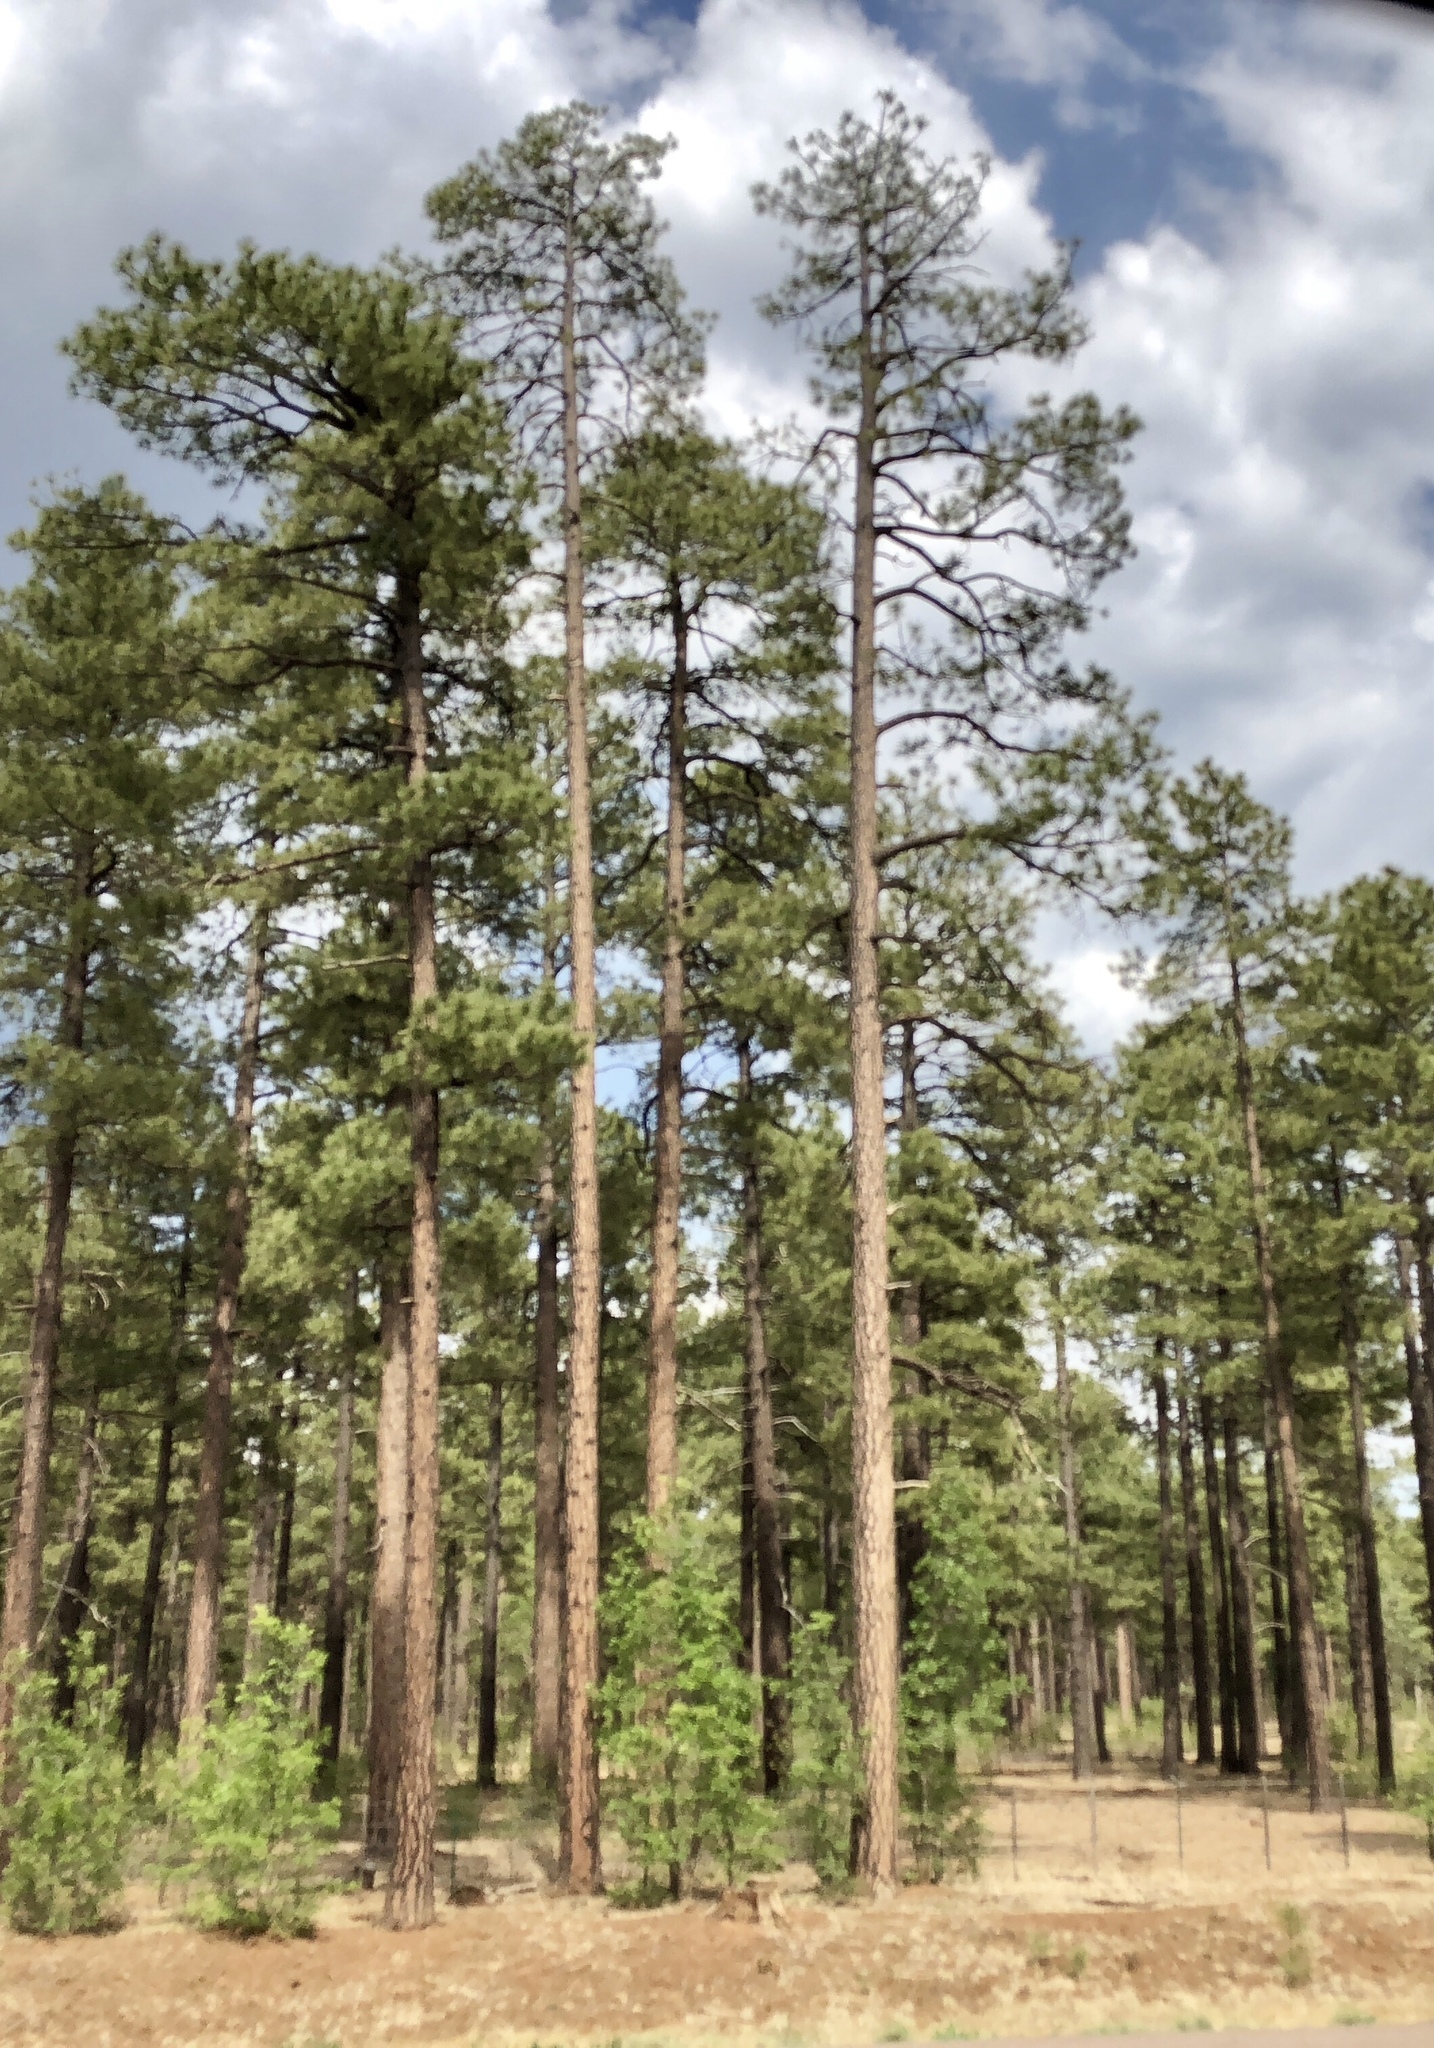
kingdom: Plantae
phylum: Tracheophyta
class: Pinopsida
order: Pinales
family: Pinaceae
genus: Pinus
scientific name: Pinus ponderosa
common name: Western yellow-pine
